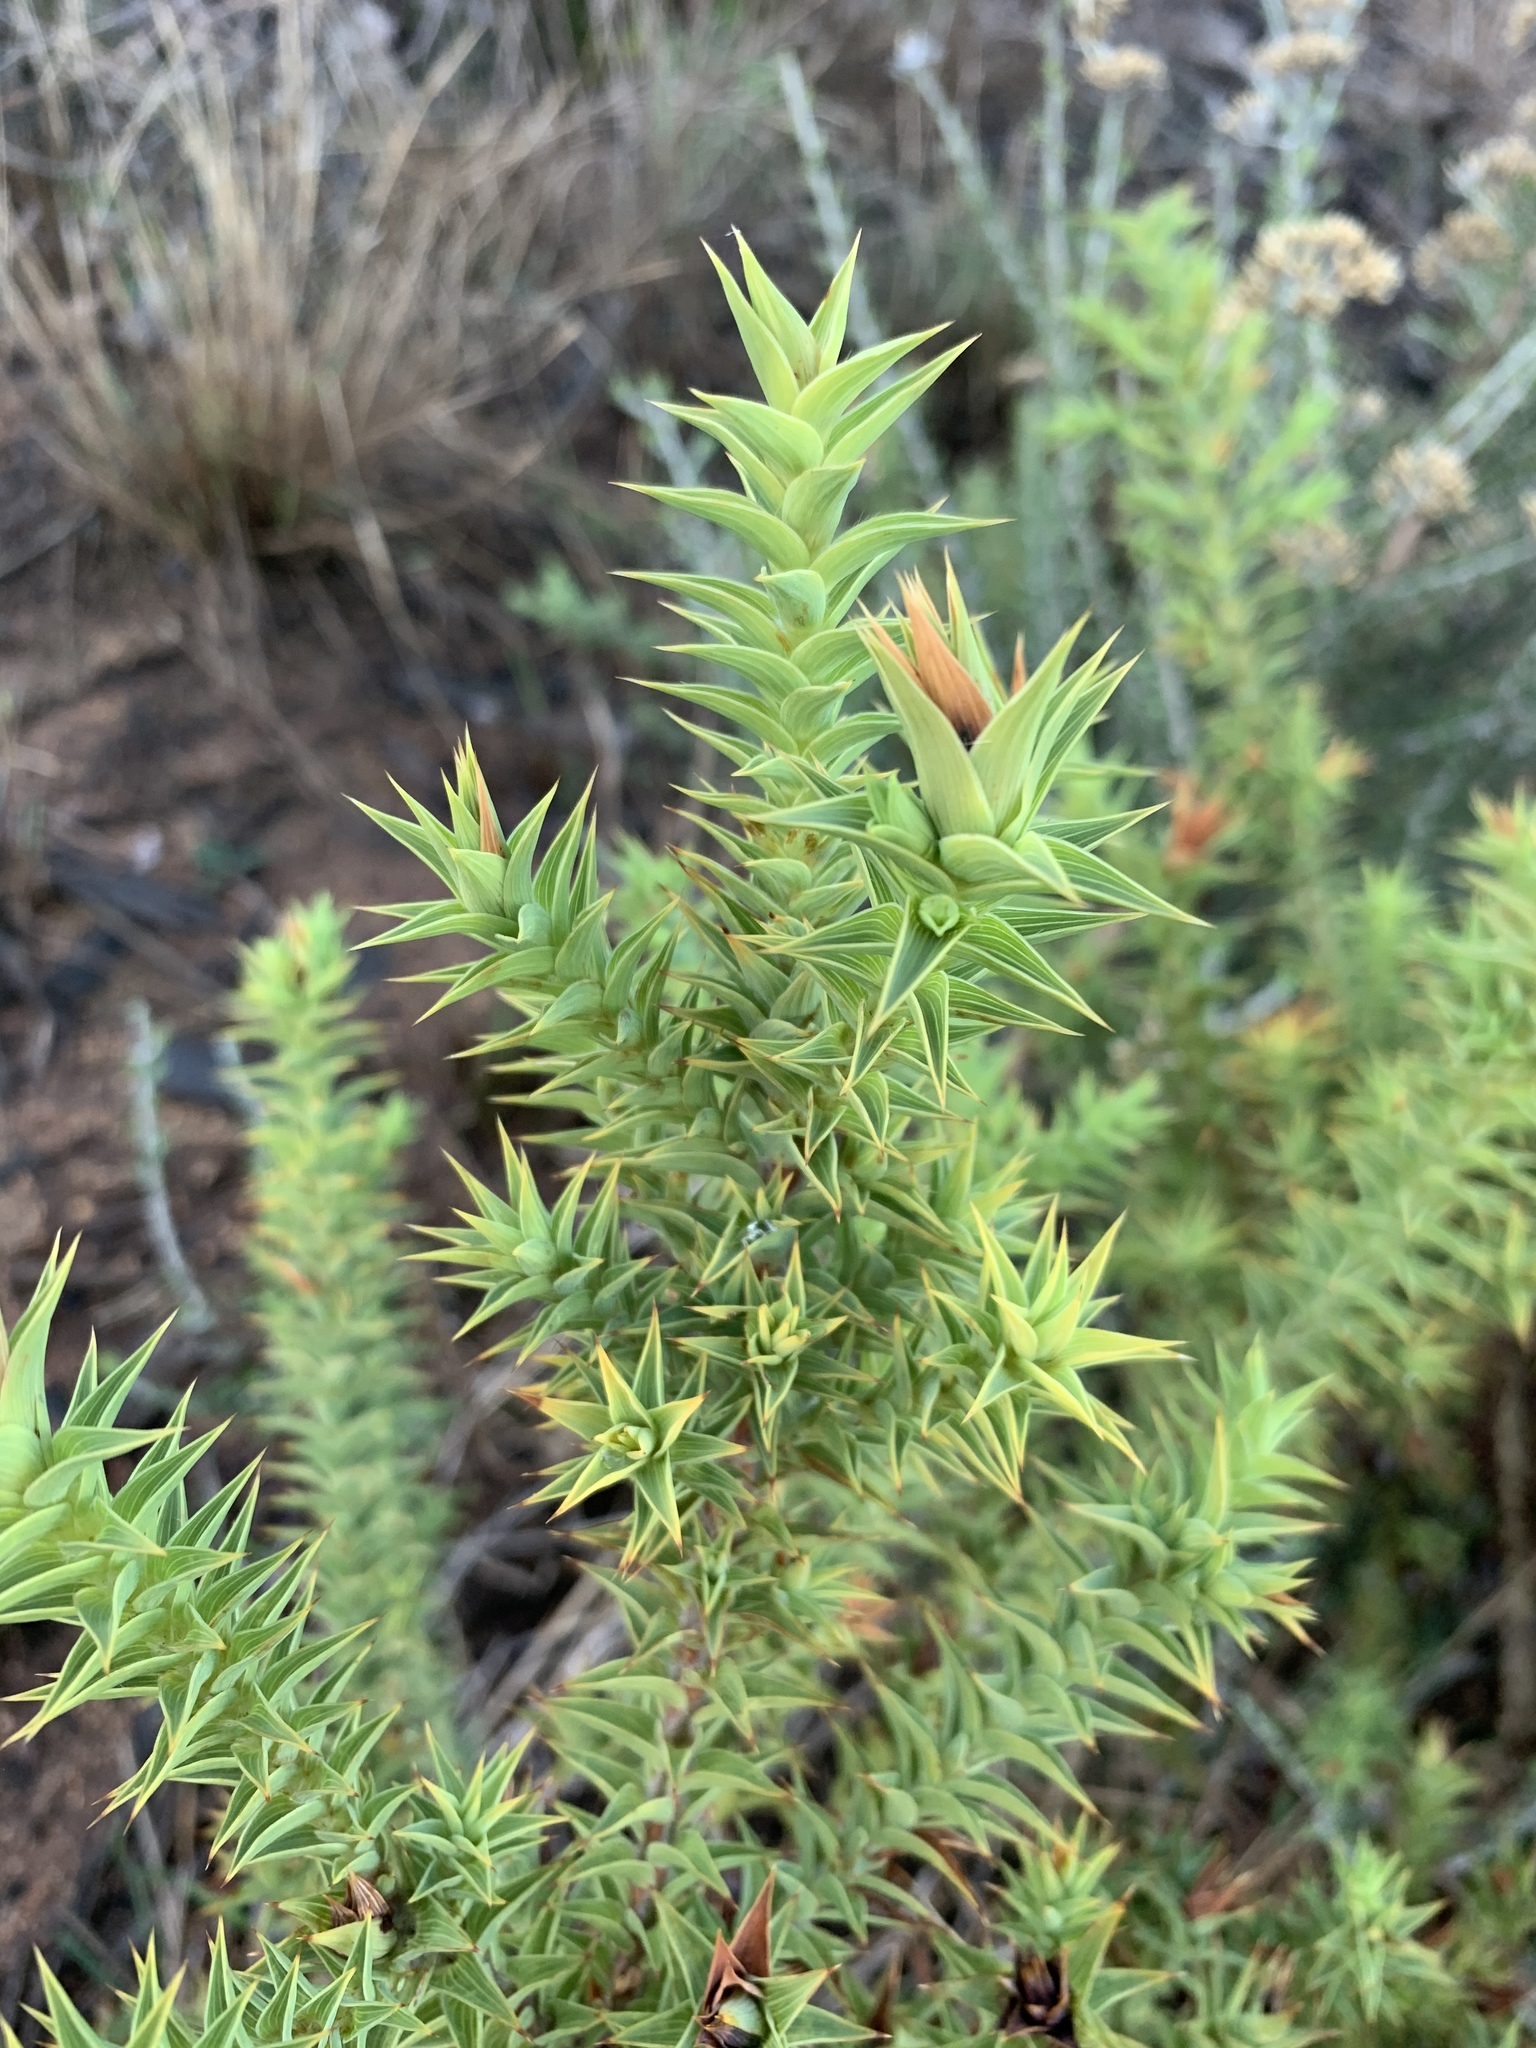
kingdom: Plantae
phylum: Tracheophyta
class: Magnoliopsida
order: Fabales
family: Fabaceae
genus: Aspalathus
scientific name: Aspalathus cordata
